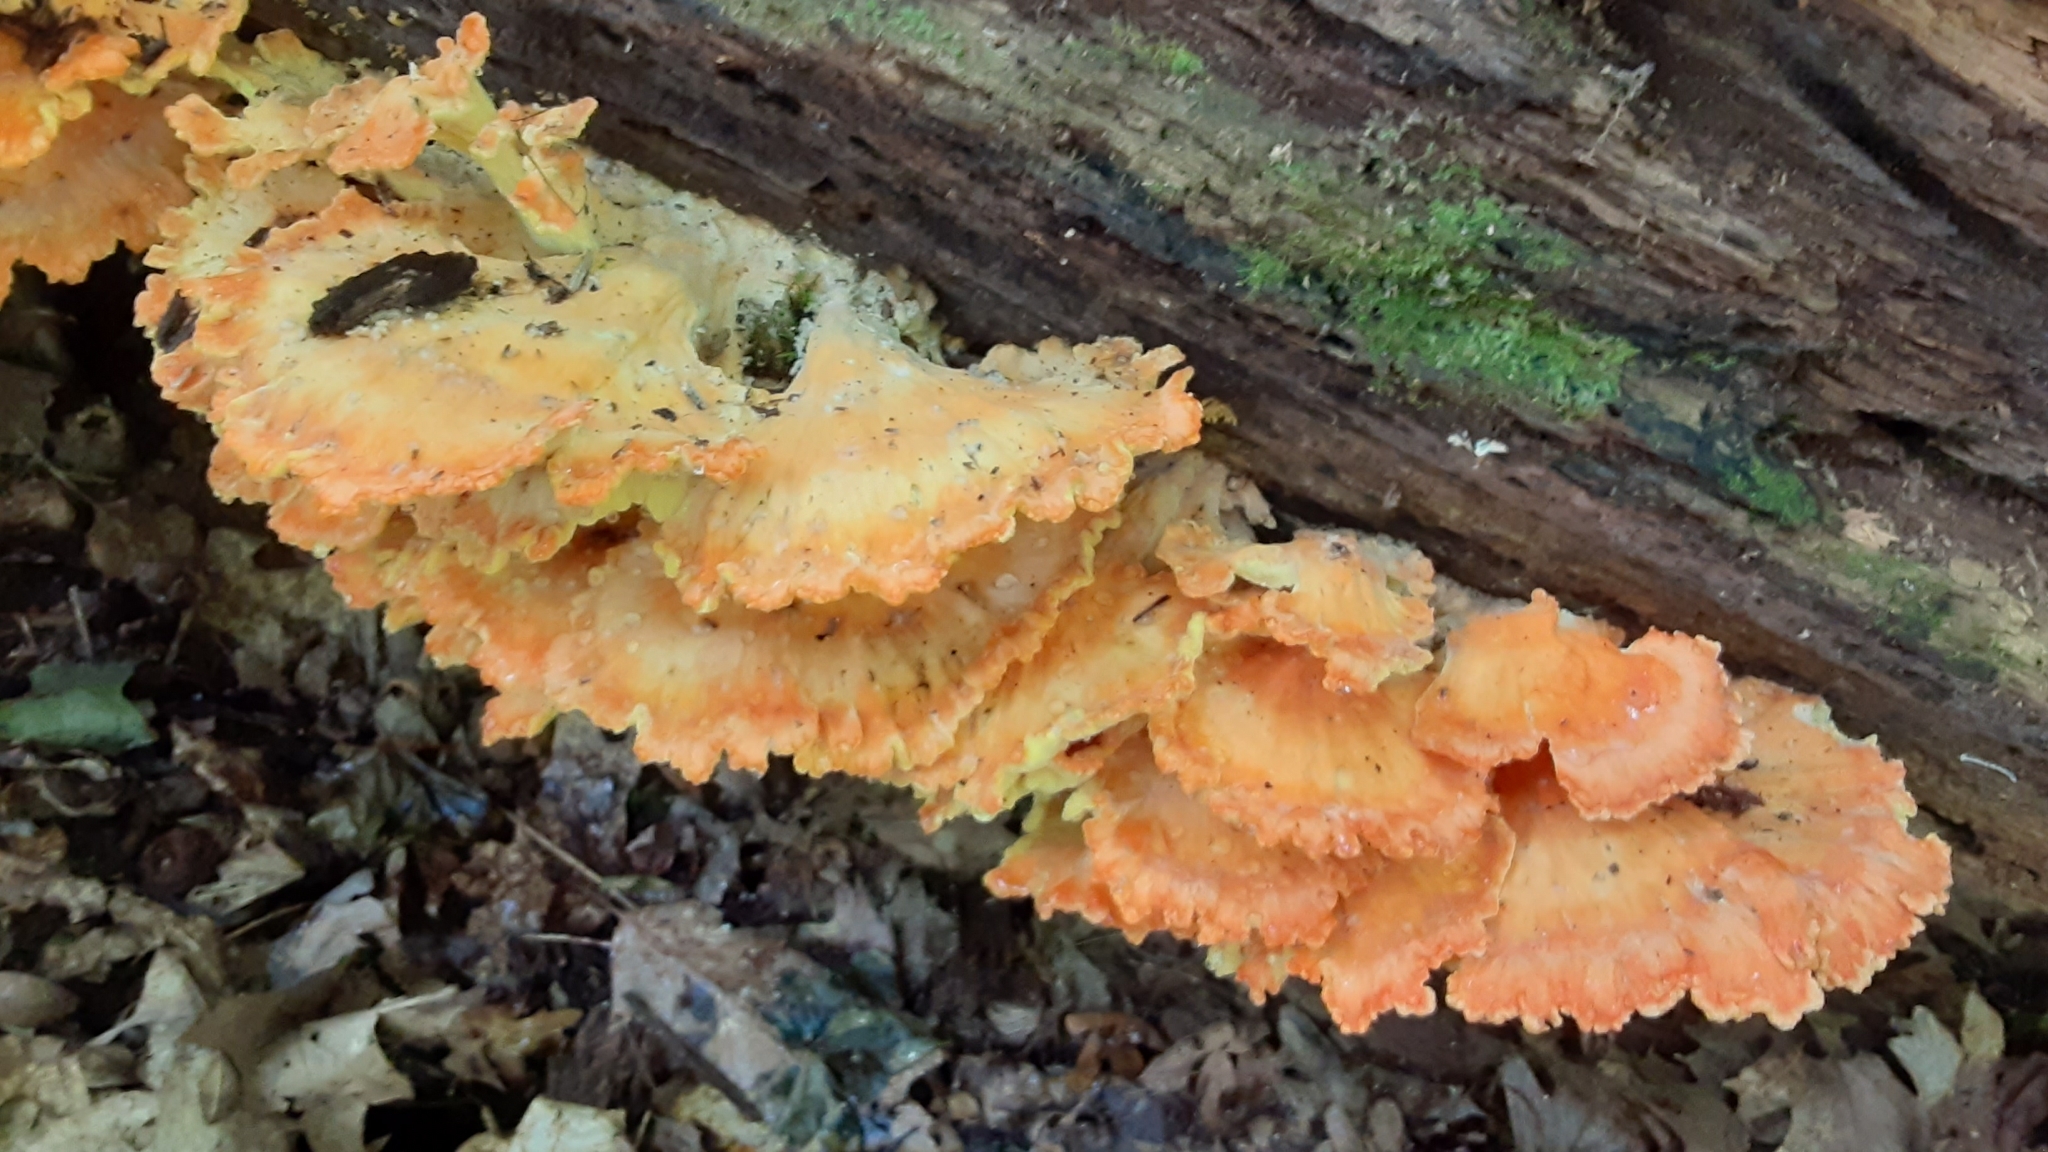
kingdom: Fungi
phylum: Basidiomycota
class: Agaricomycetes
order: Polyporales
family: Laetiporaceae
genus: Laetiporus
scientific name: Laetiporus sulphureus
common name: Chicken of the woods
